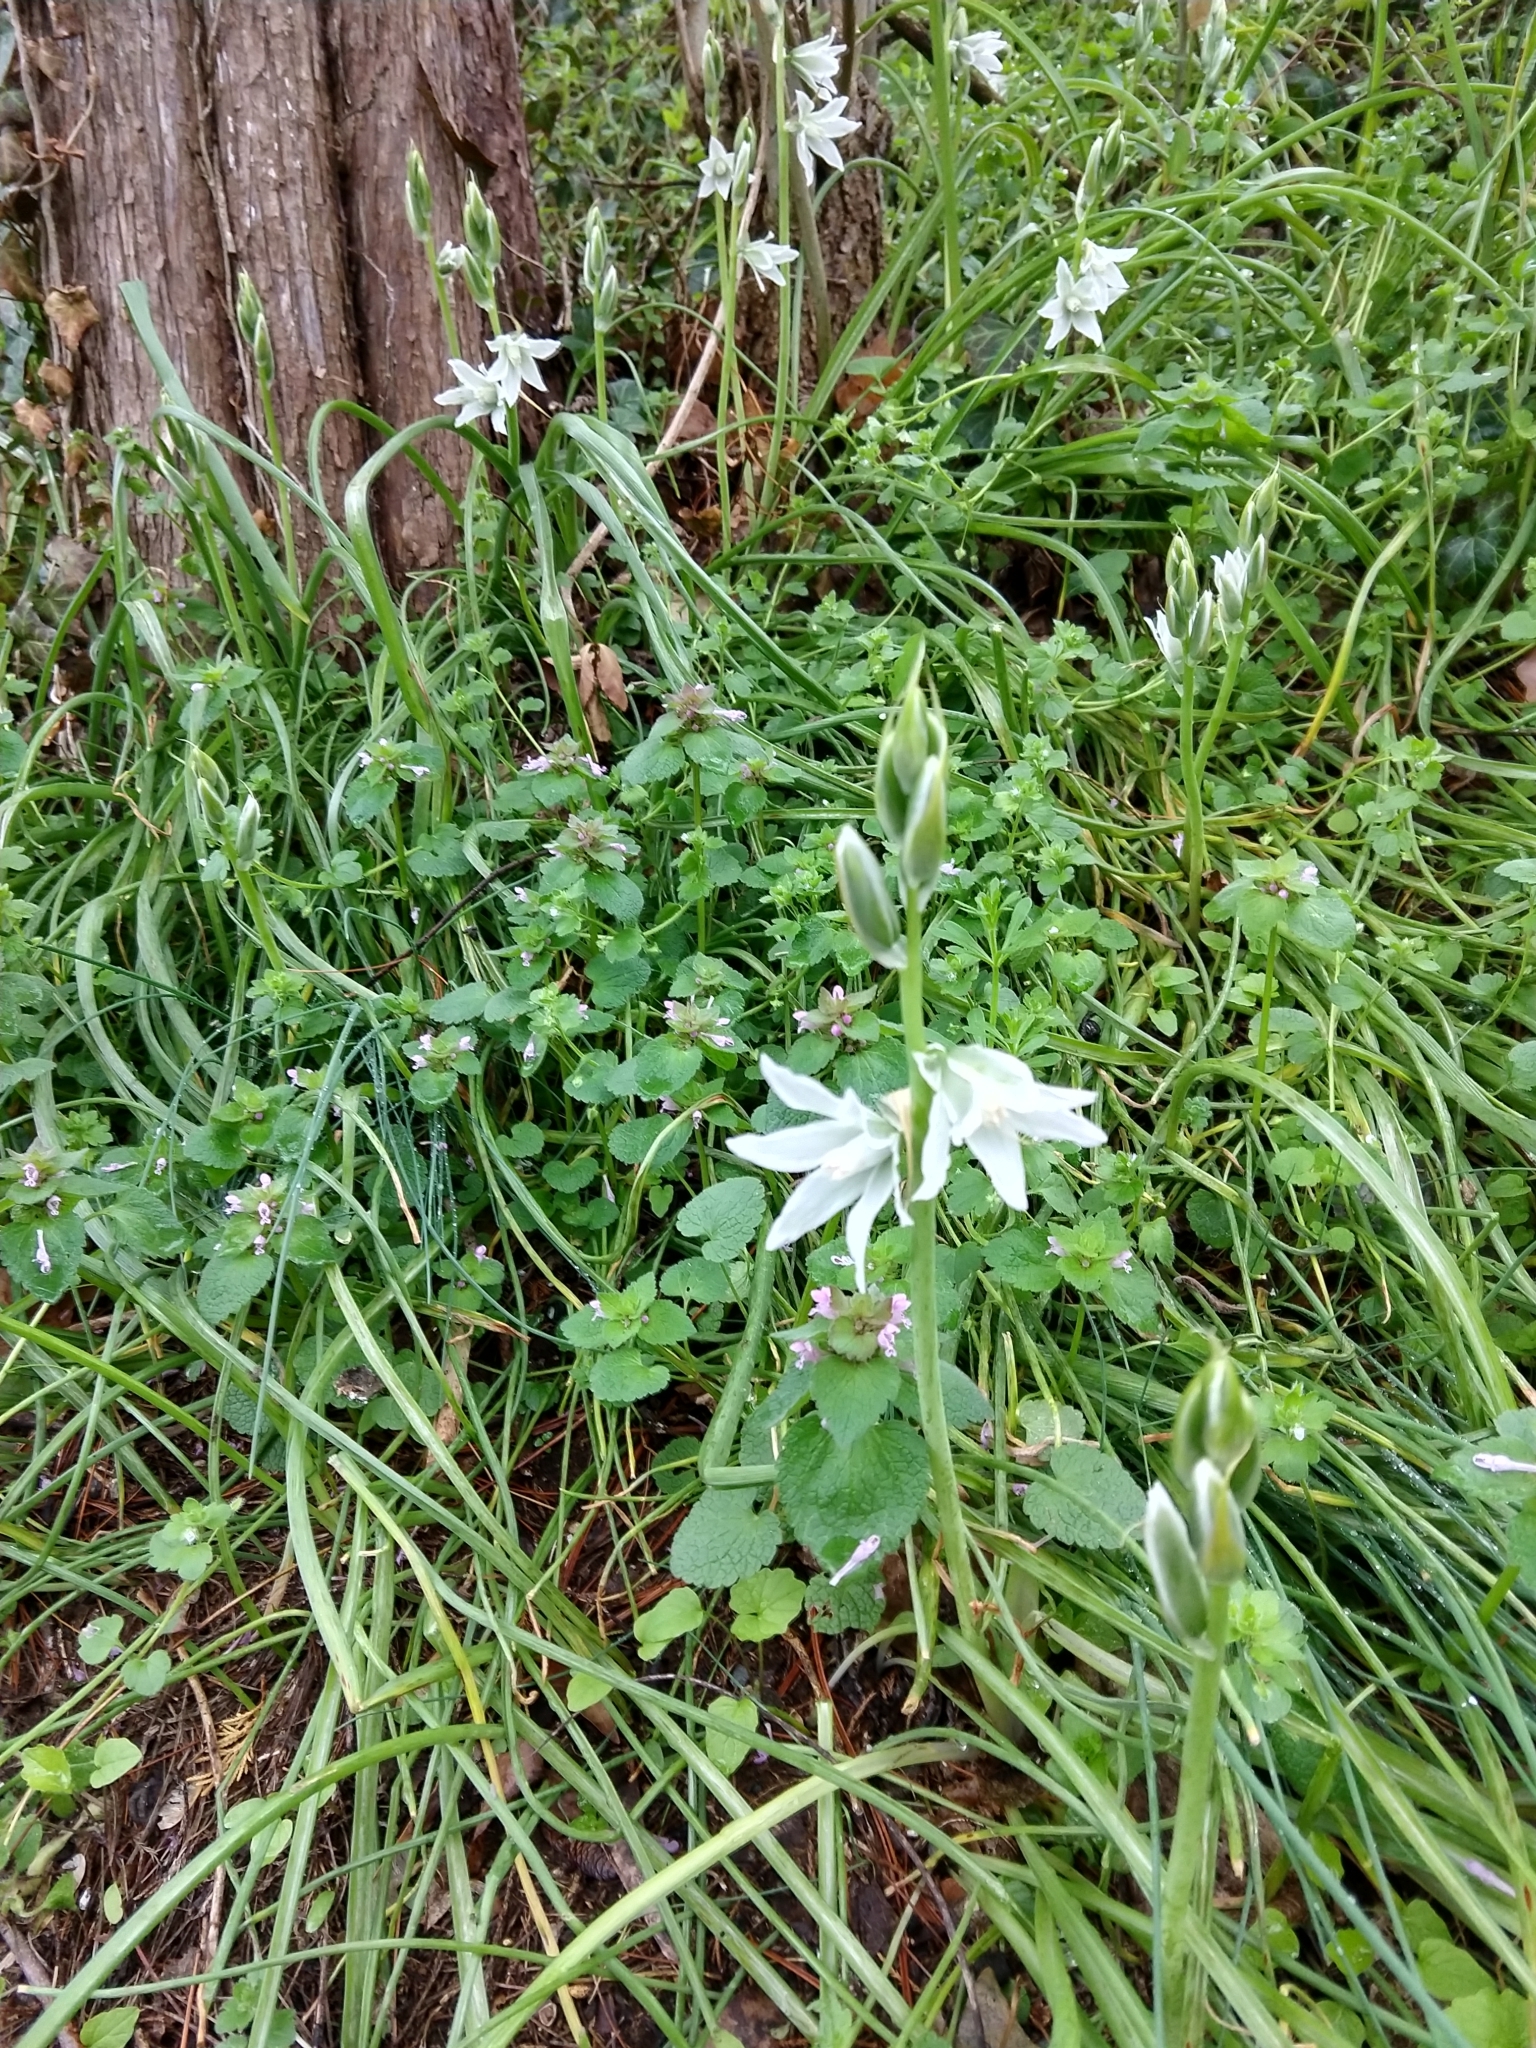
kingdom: Plantae
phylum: Tracheophyta
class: Liliopsida
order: Asparagales
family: Asparagaceae
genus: Ornithogalum
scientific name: Ornithogalum nutans
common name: Drooping star-of-bethlehem
